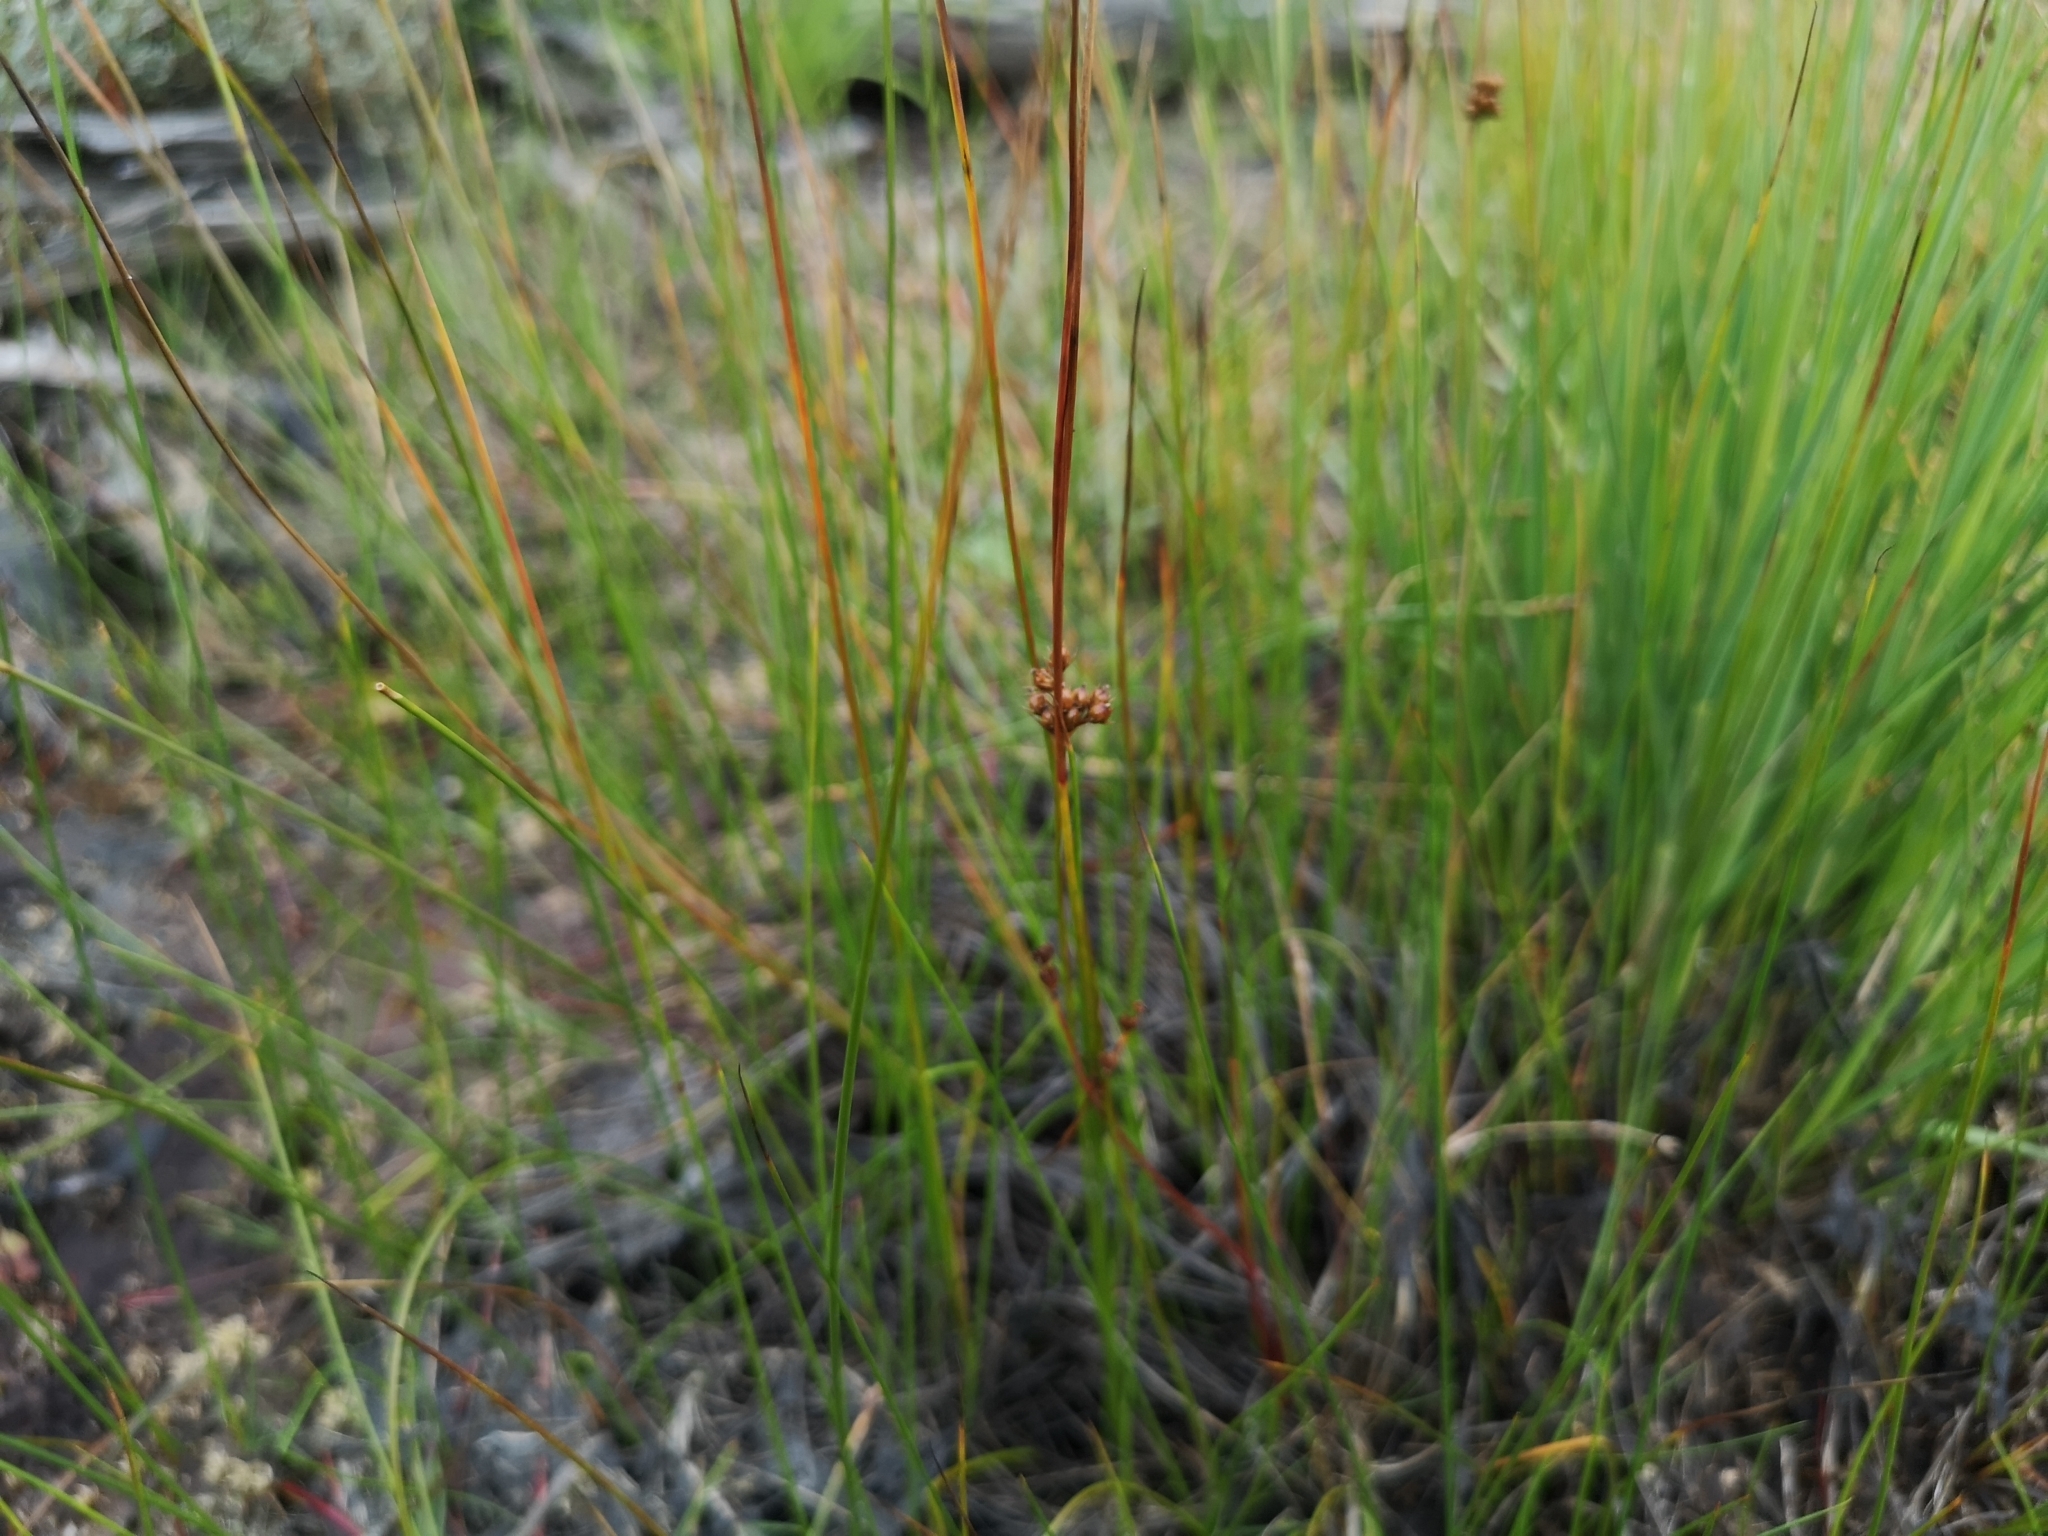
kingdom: Plantae
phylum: Tracheophyta
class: Liliopsida
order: Poales
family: Juncaceae
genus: Juncus
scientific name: Juncus filiformis
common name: Thread rush
